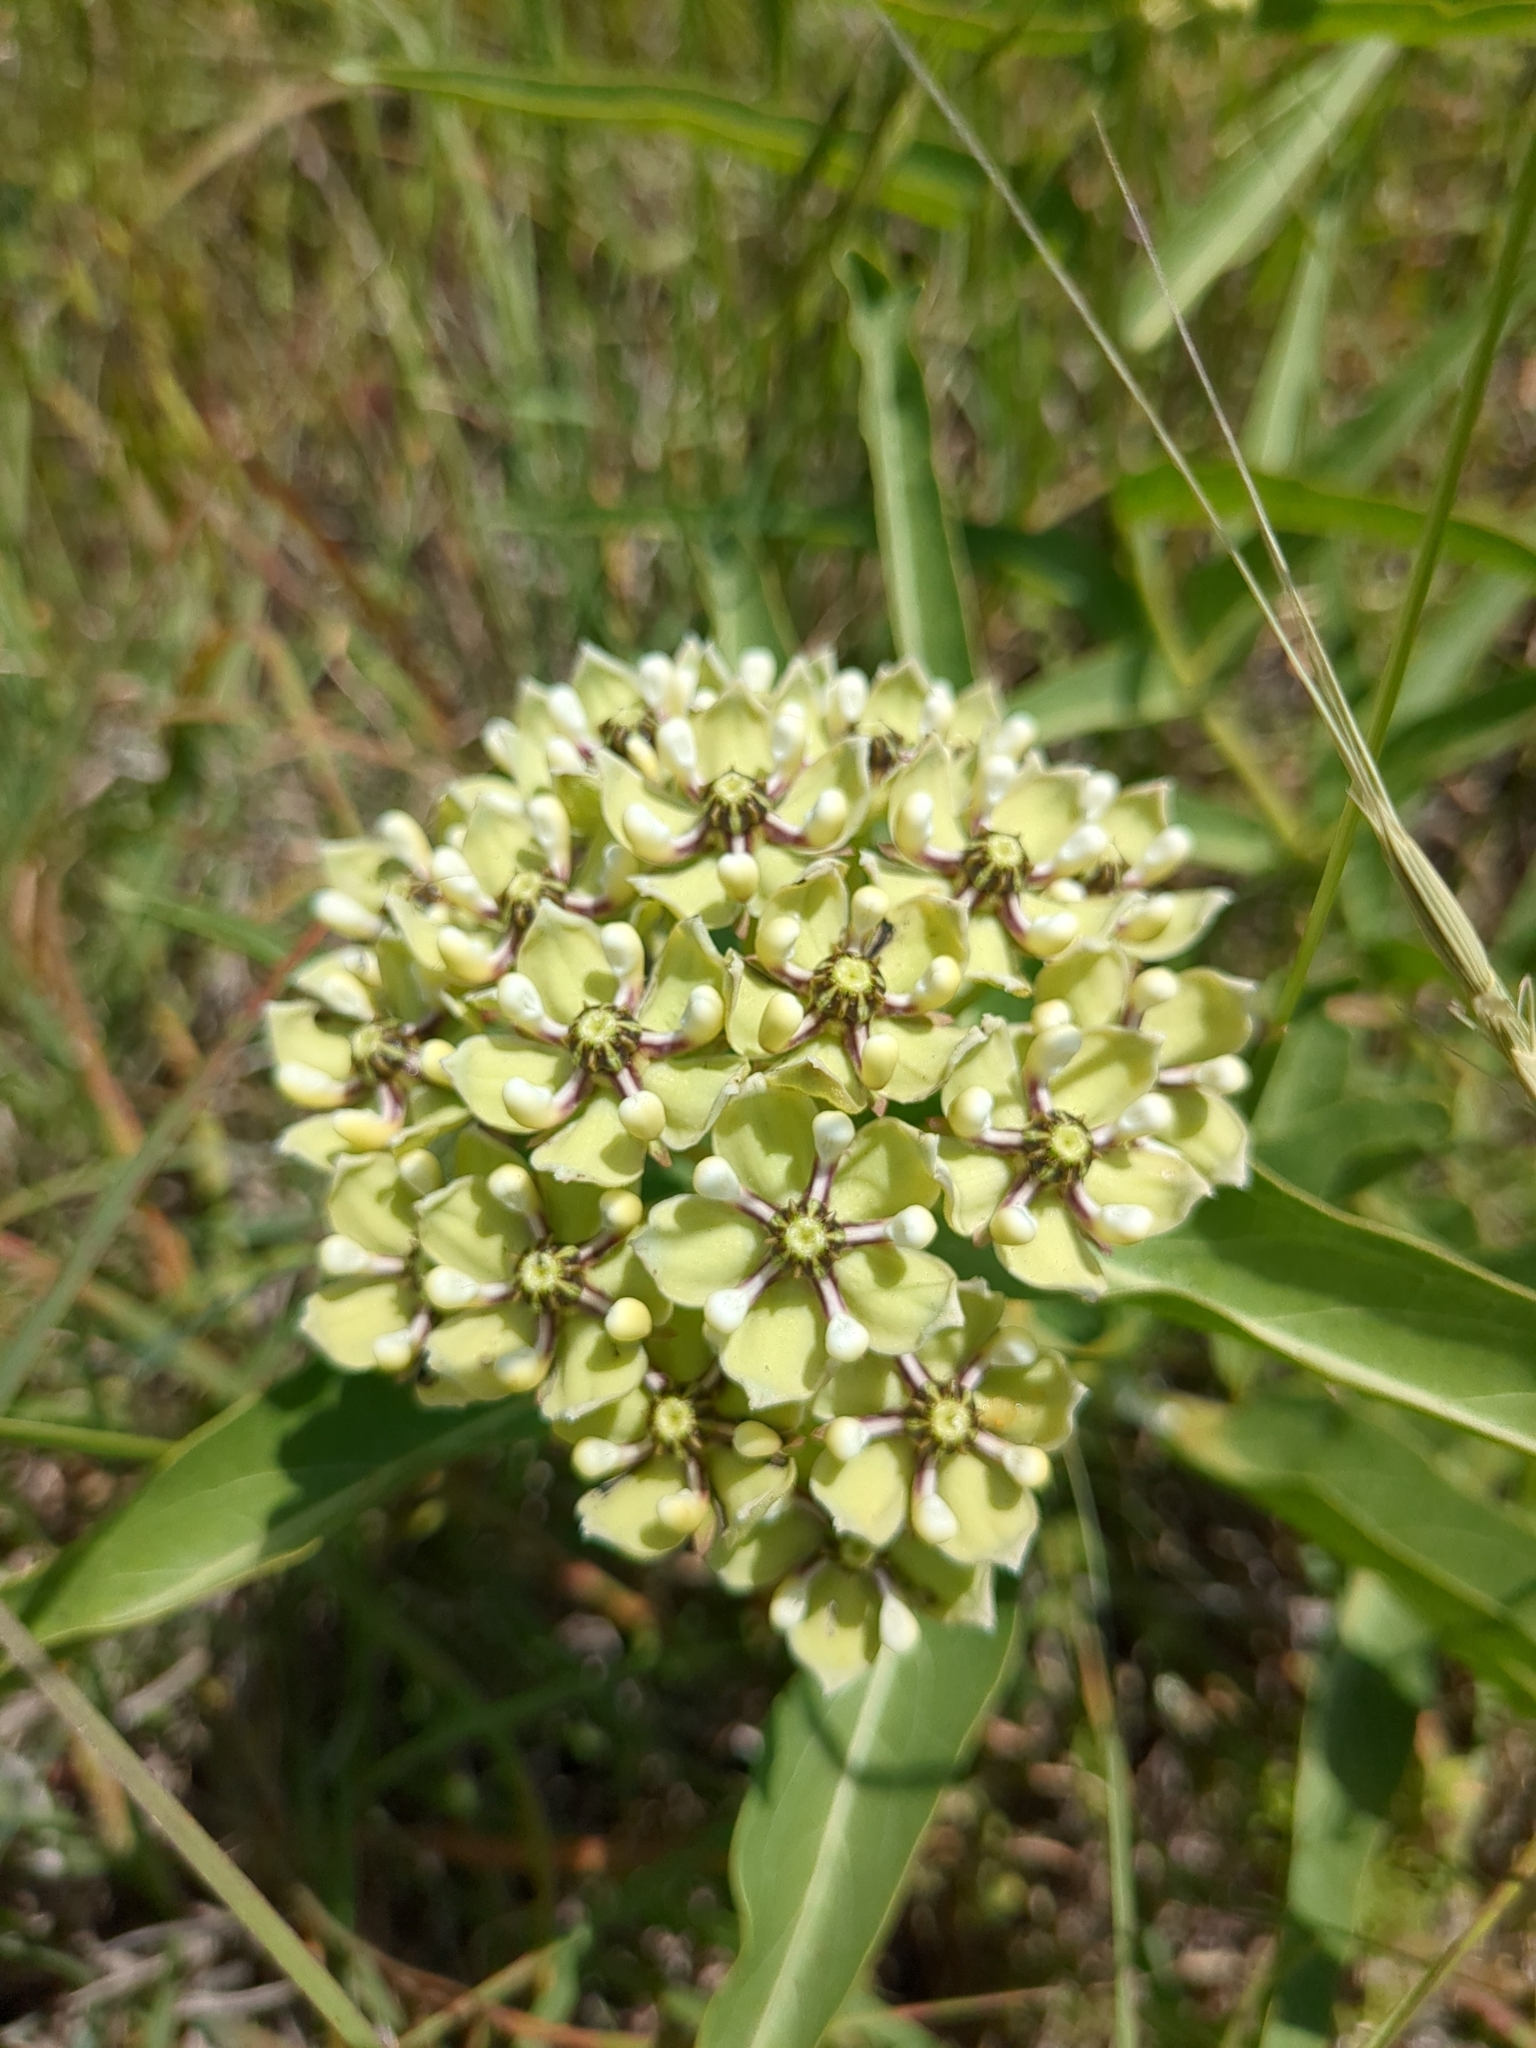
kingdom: Plantae
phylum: Tracheophyta
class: Magnoliopsida
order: Gentianales
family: Apocynaceae
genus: Asclepias
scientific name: Asclepias asperula
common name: Antelope horns
